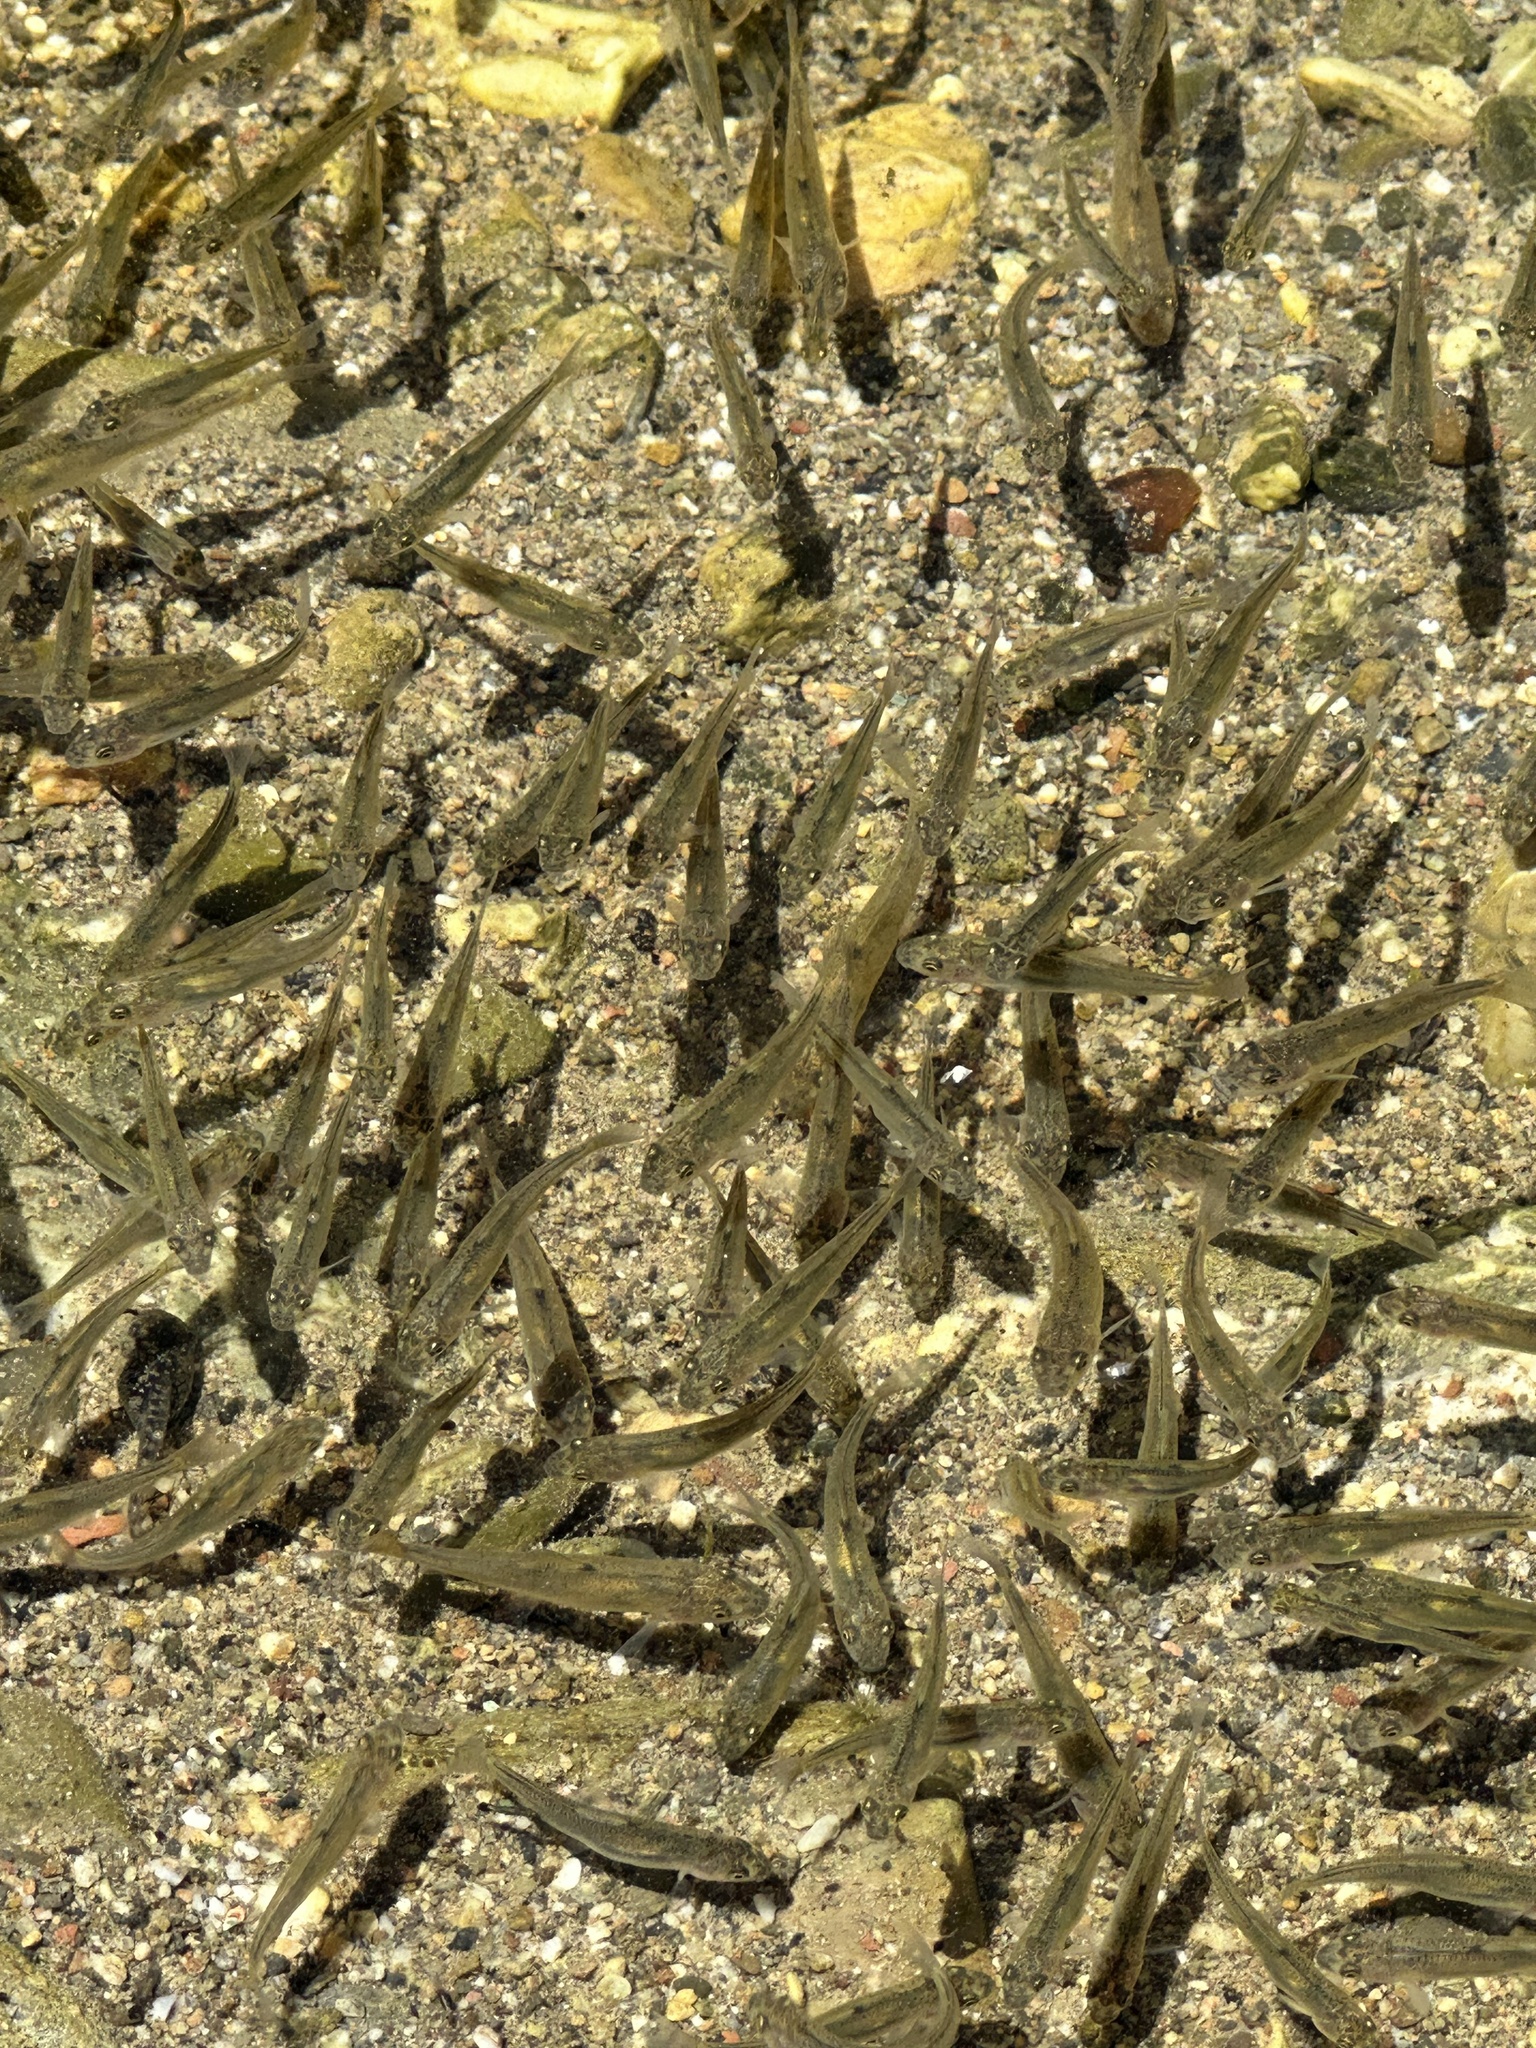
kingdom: Animalia
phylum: Chordata
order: Cypriniformes
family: Catostomidae
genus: Catostomus
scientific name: Catostomus occidentalis
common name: Goose lake sucker
